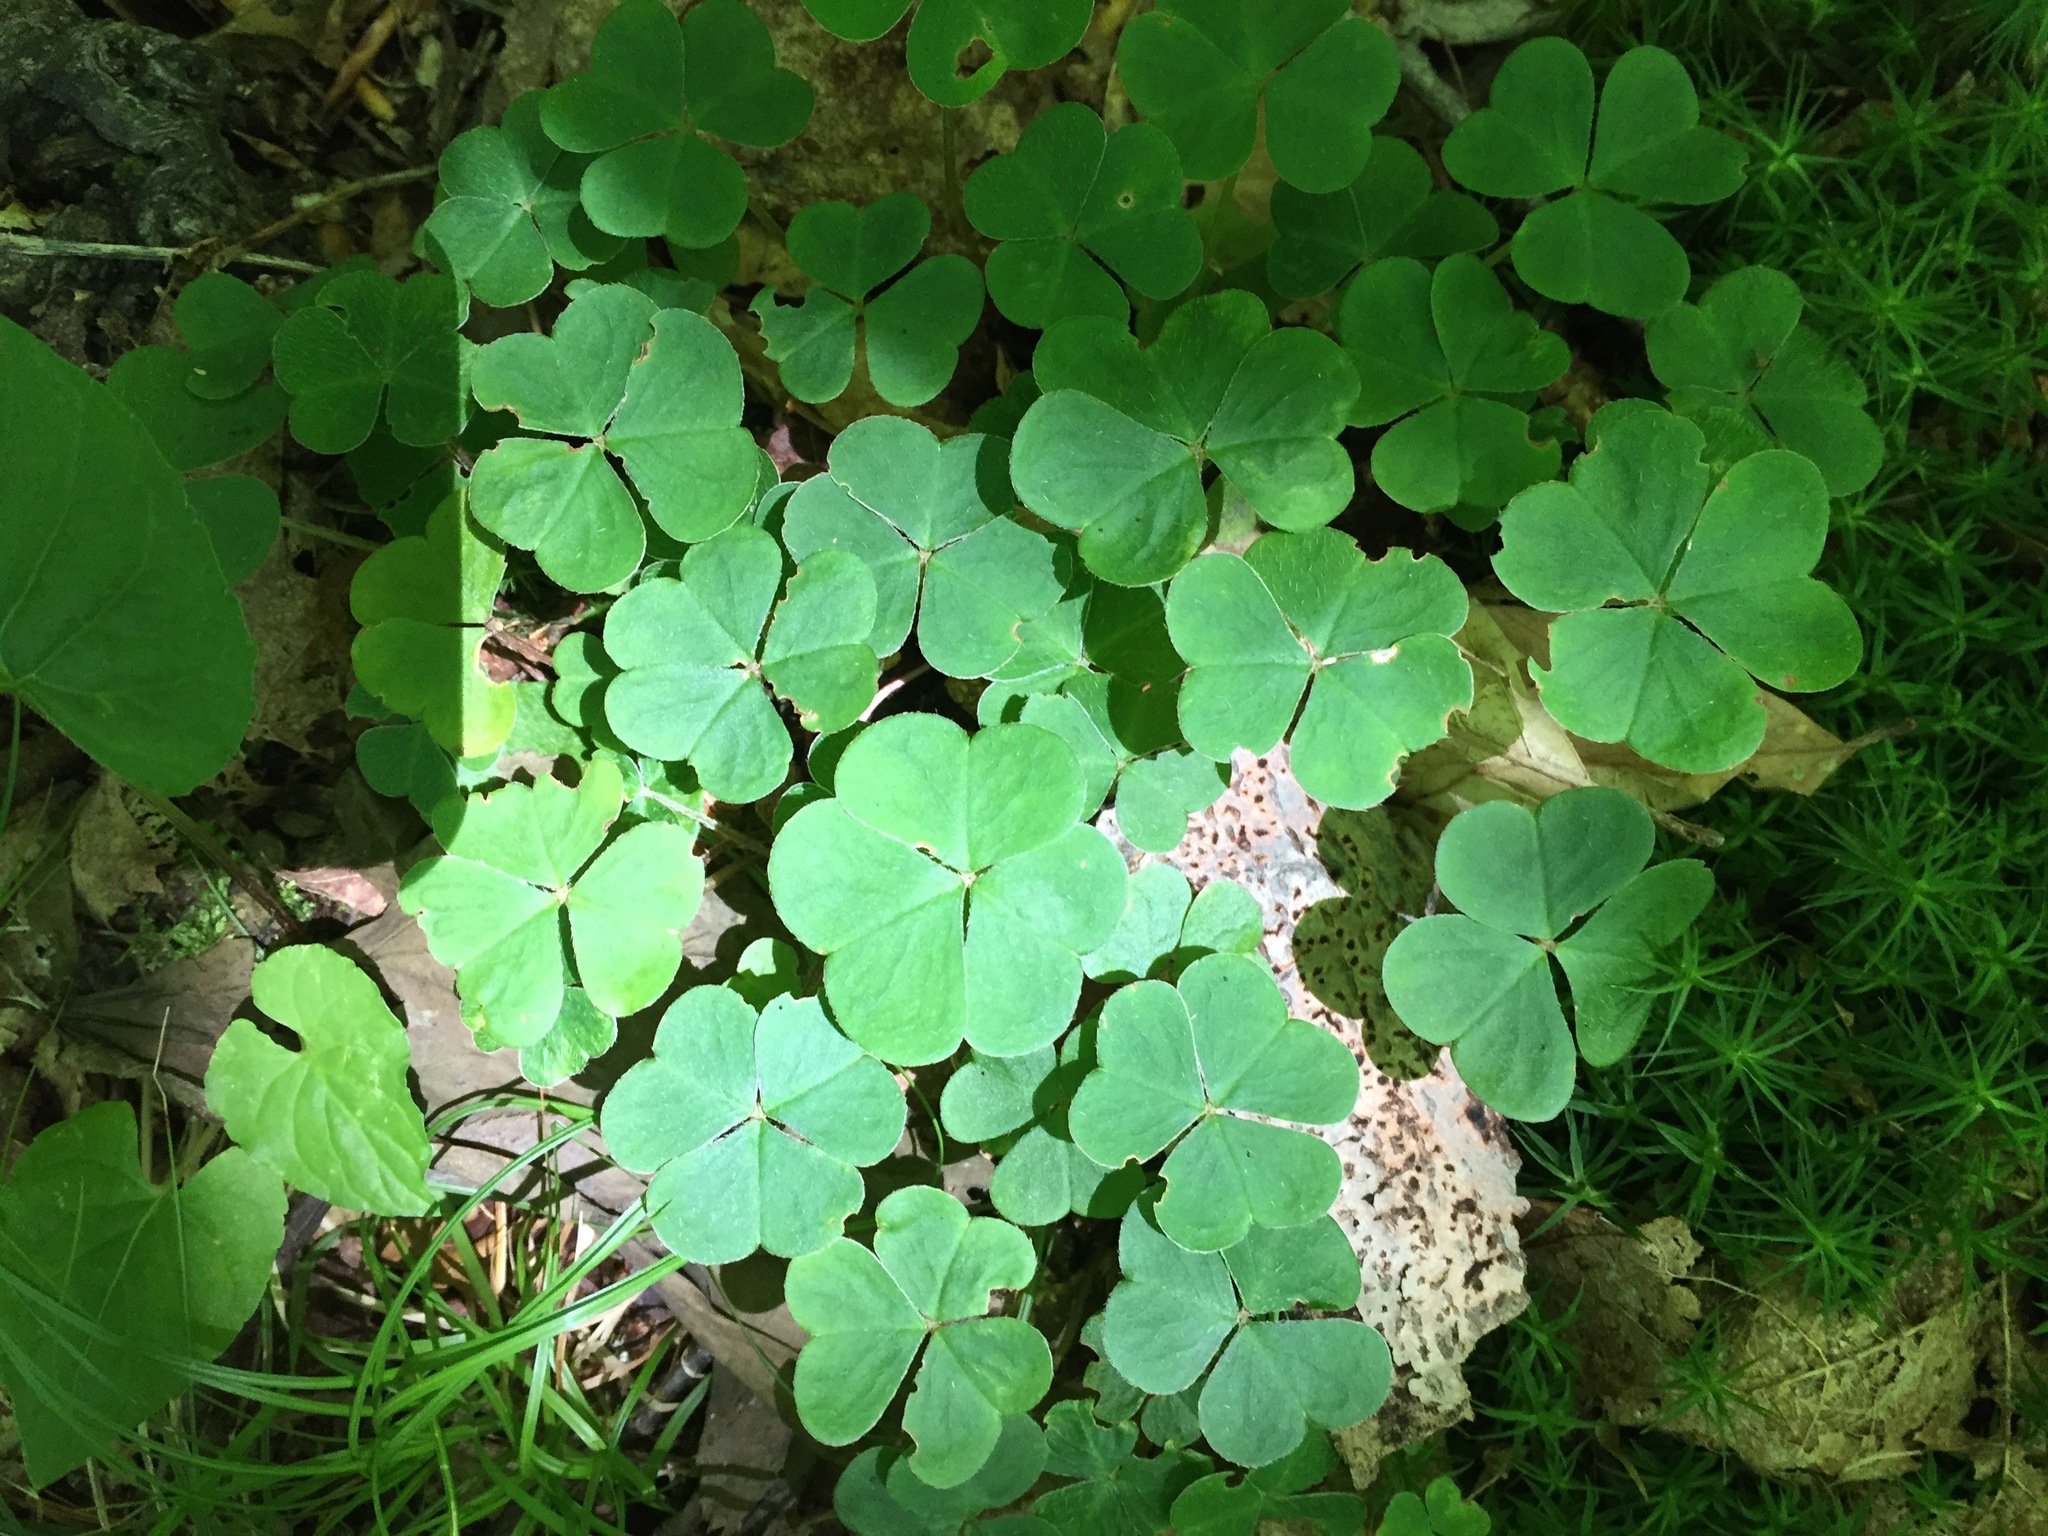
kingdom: Plantae
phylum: Tracheophyta
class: Magnoliopsida
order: Oxalidales
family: Oxalidaceae
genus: Oxalis
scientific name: Oxalis montana
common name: American wood-sorrel
